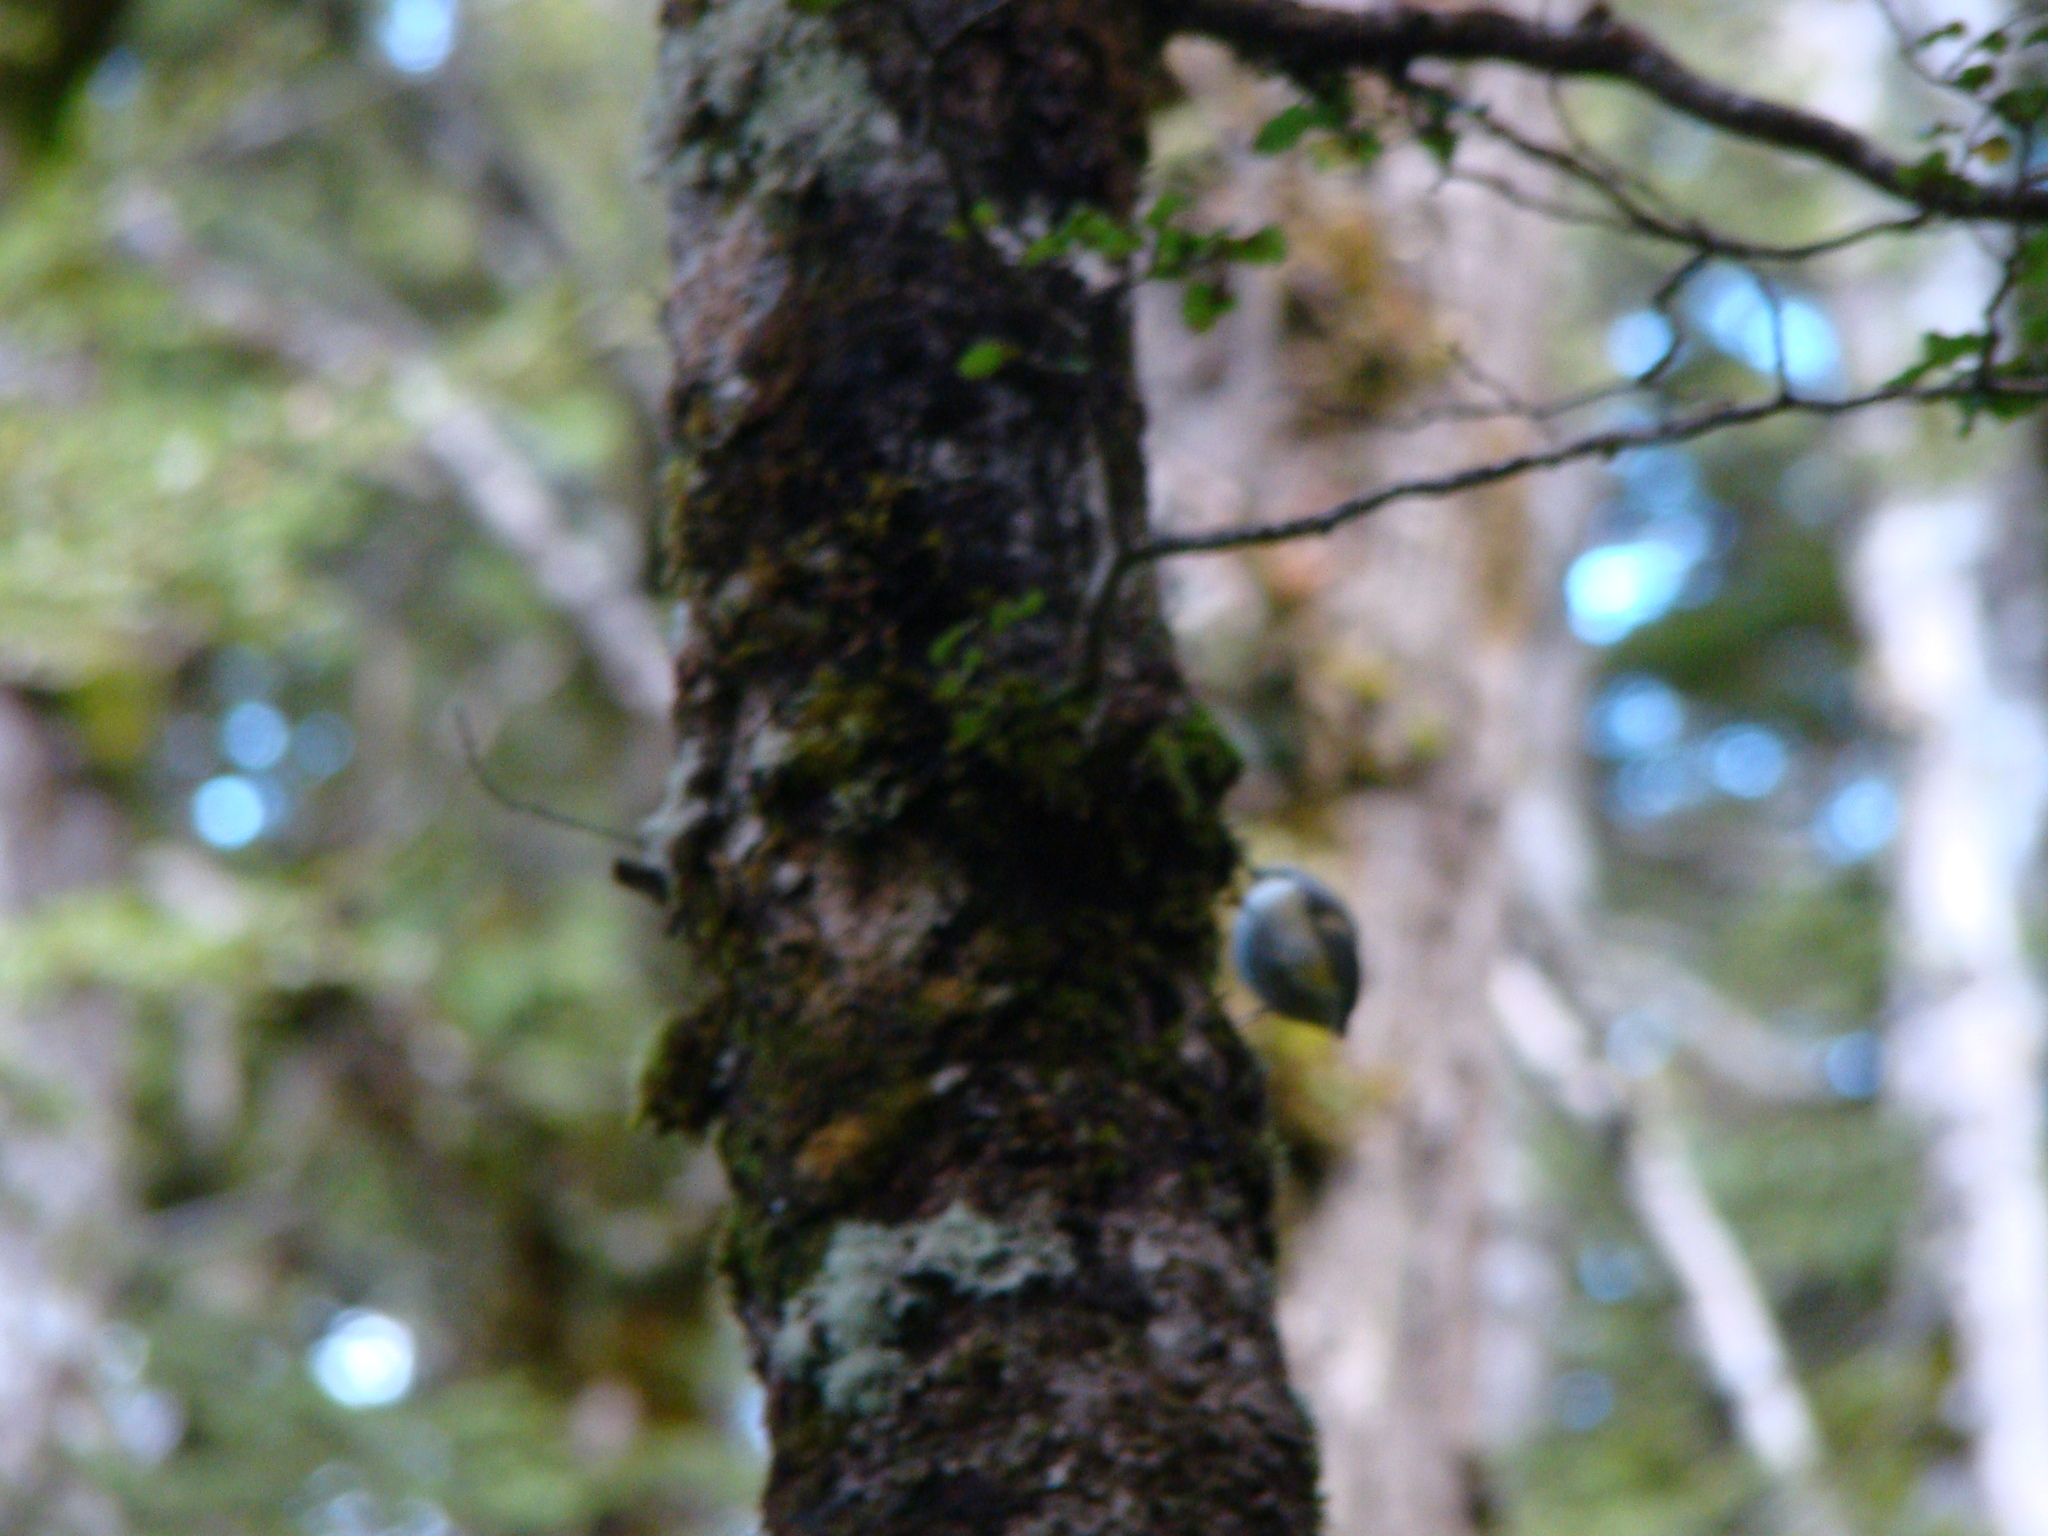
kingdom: Animalia
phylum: Chordata
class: Aves
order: Passeriformes
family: Acanthisittidae
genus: Acanthisitta
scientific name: Acanthisitta chloris
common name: Rifleman
